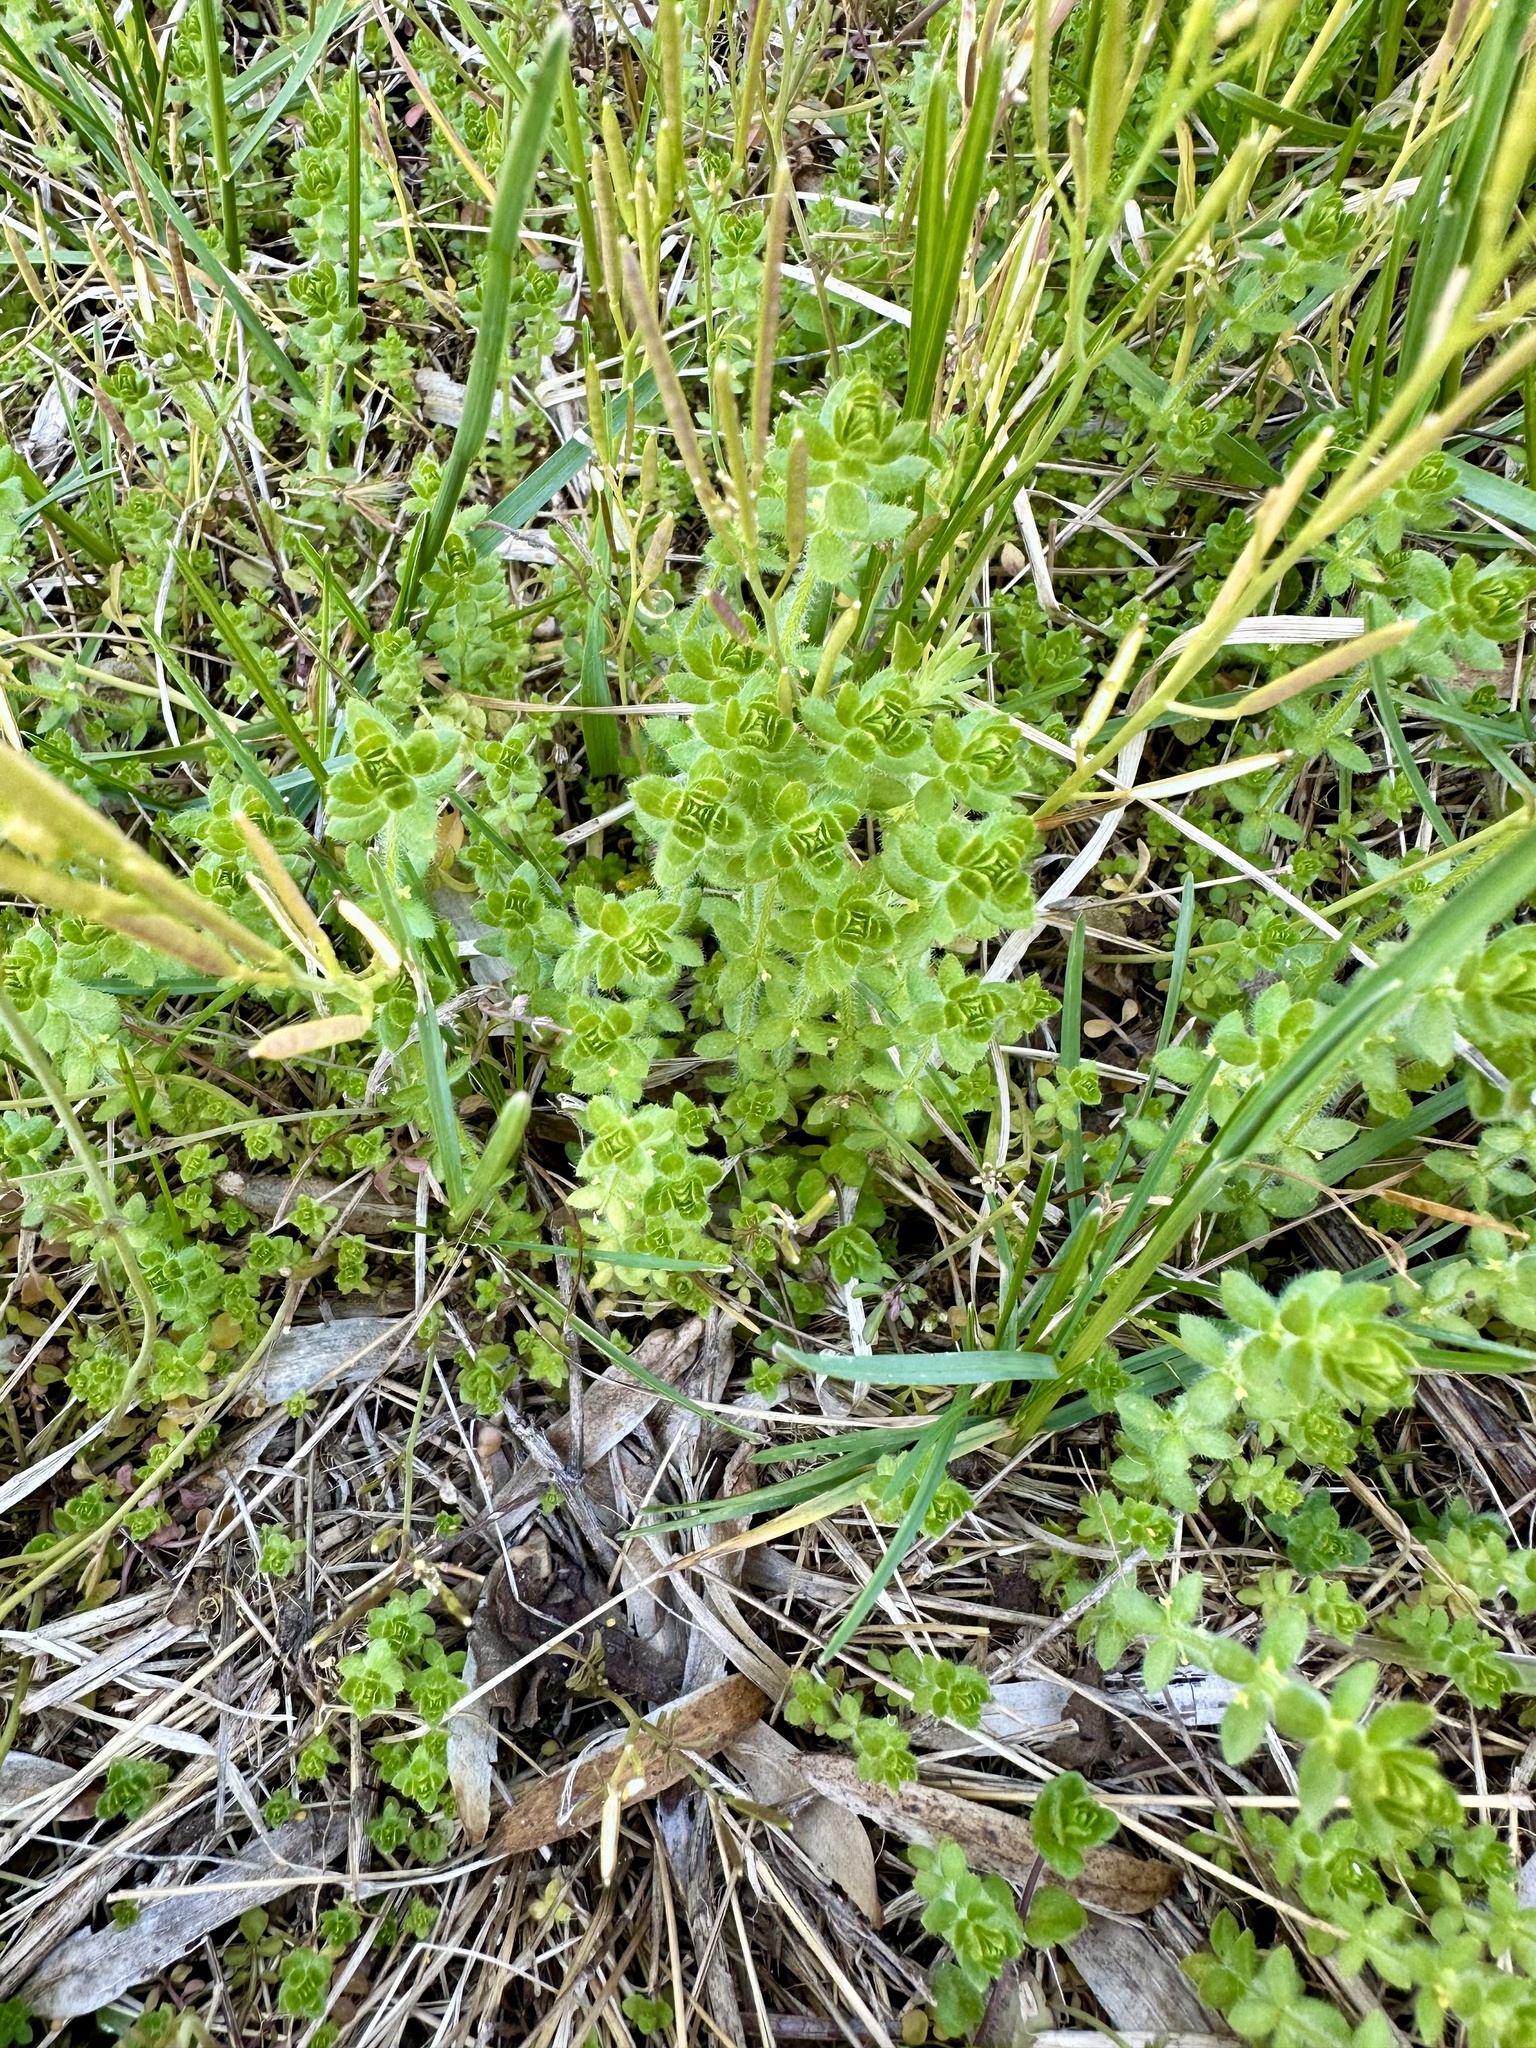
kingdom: Plantae
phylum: Tracheophyta
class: Magnoliopsida
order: Gentianales
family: Rubiaceae
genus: Cruciata
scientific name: Cruciata pedemontana
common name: Piedmont bedstraw
